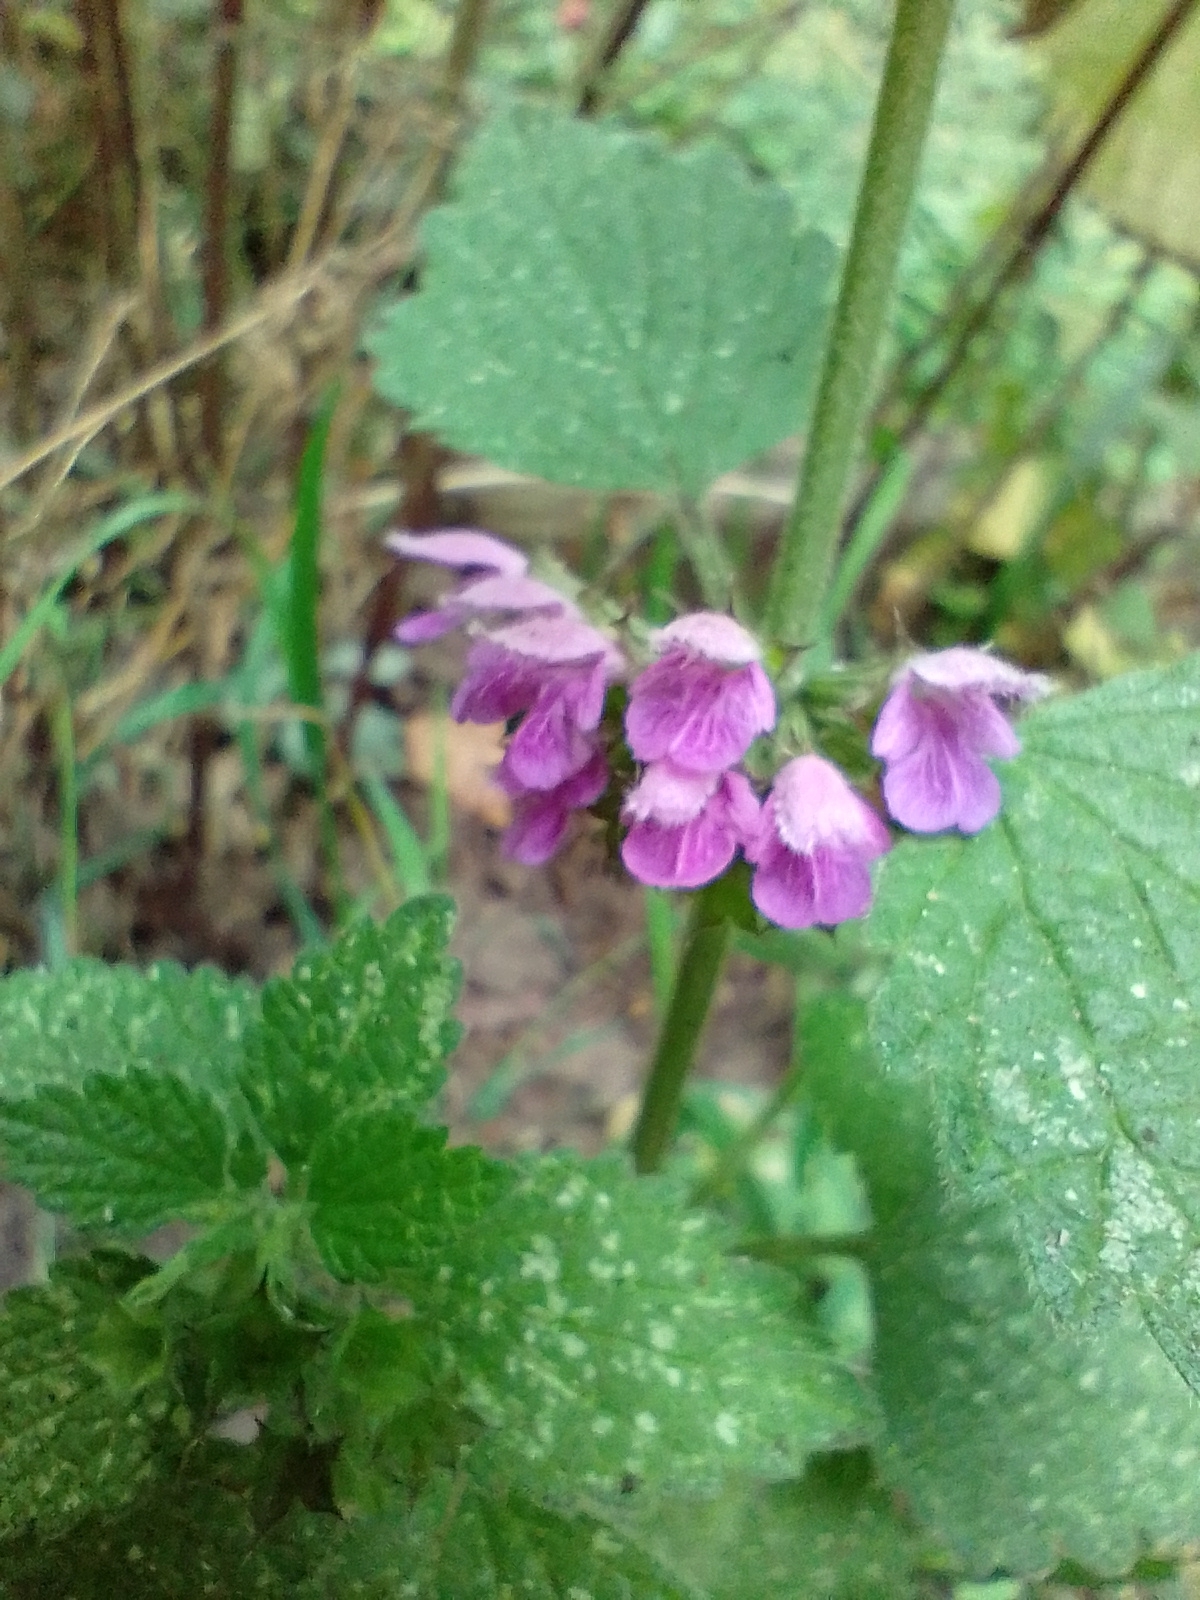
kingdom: Plantae
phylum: Tracheophyta
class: Magnoliopsida
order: Lamiales
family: Lamiaceae
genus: Ballota
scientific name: Ballota nigra
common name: Black horehound
